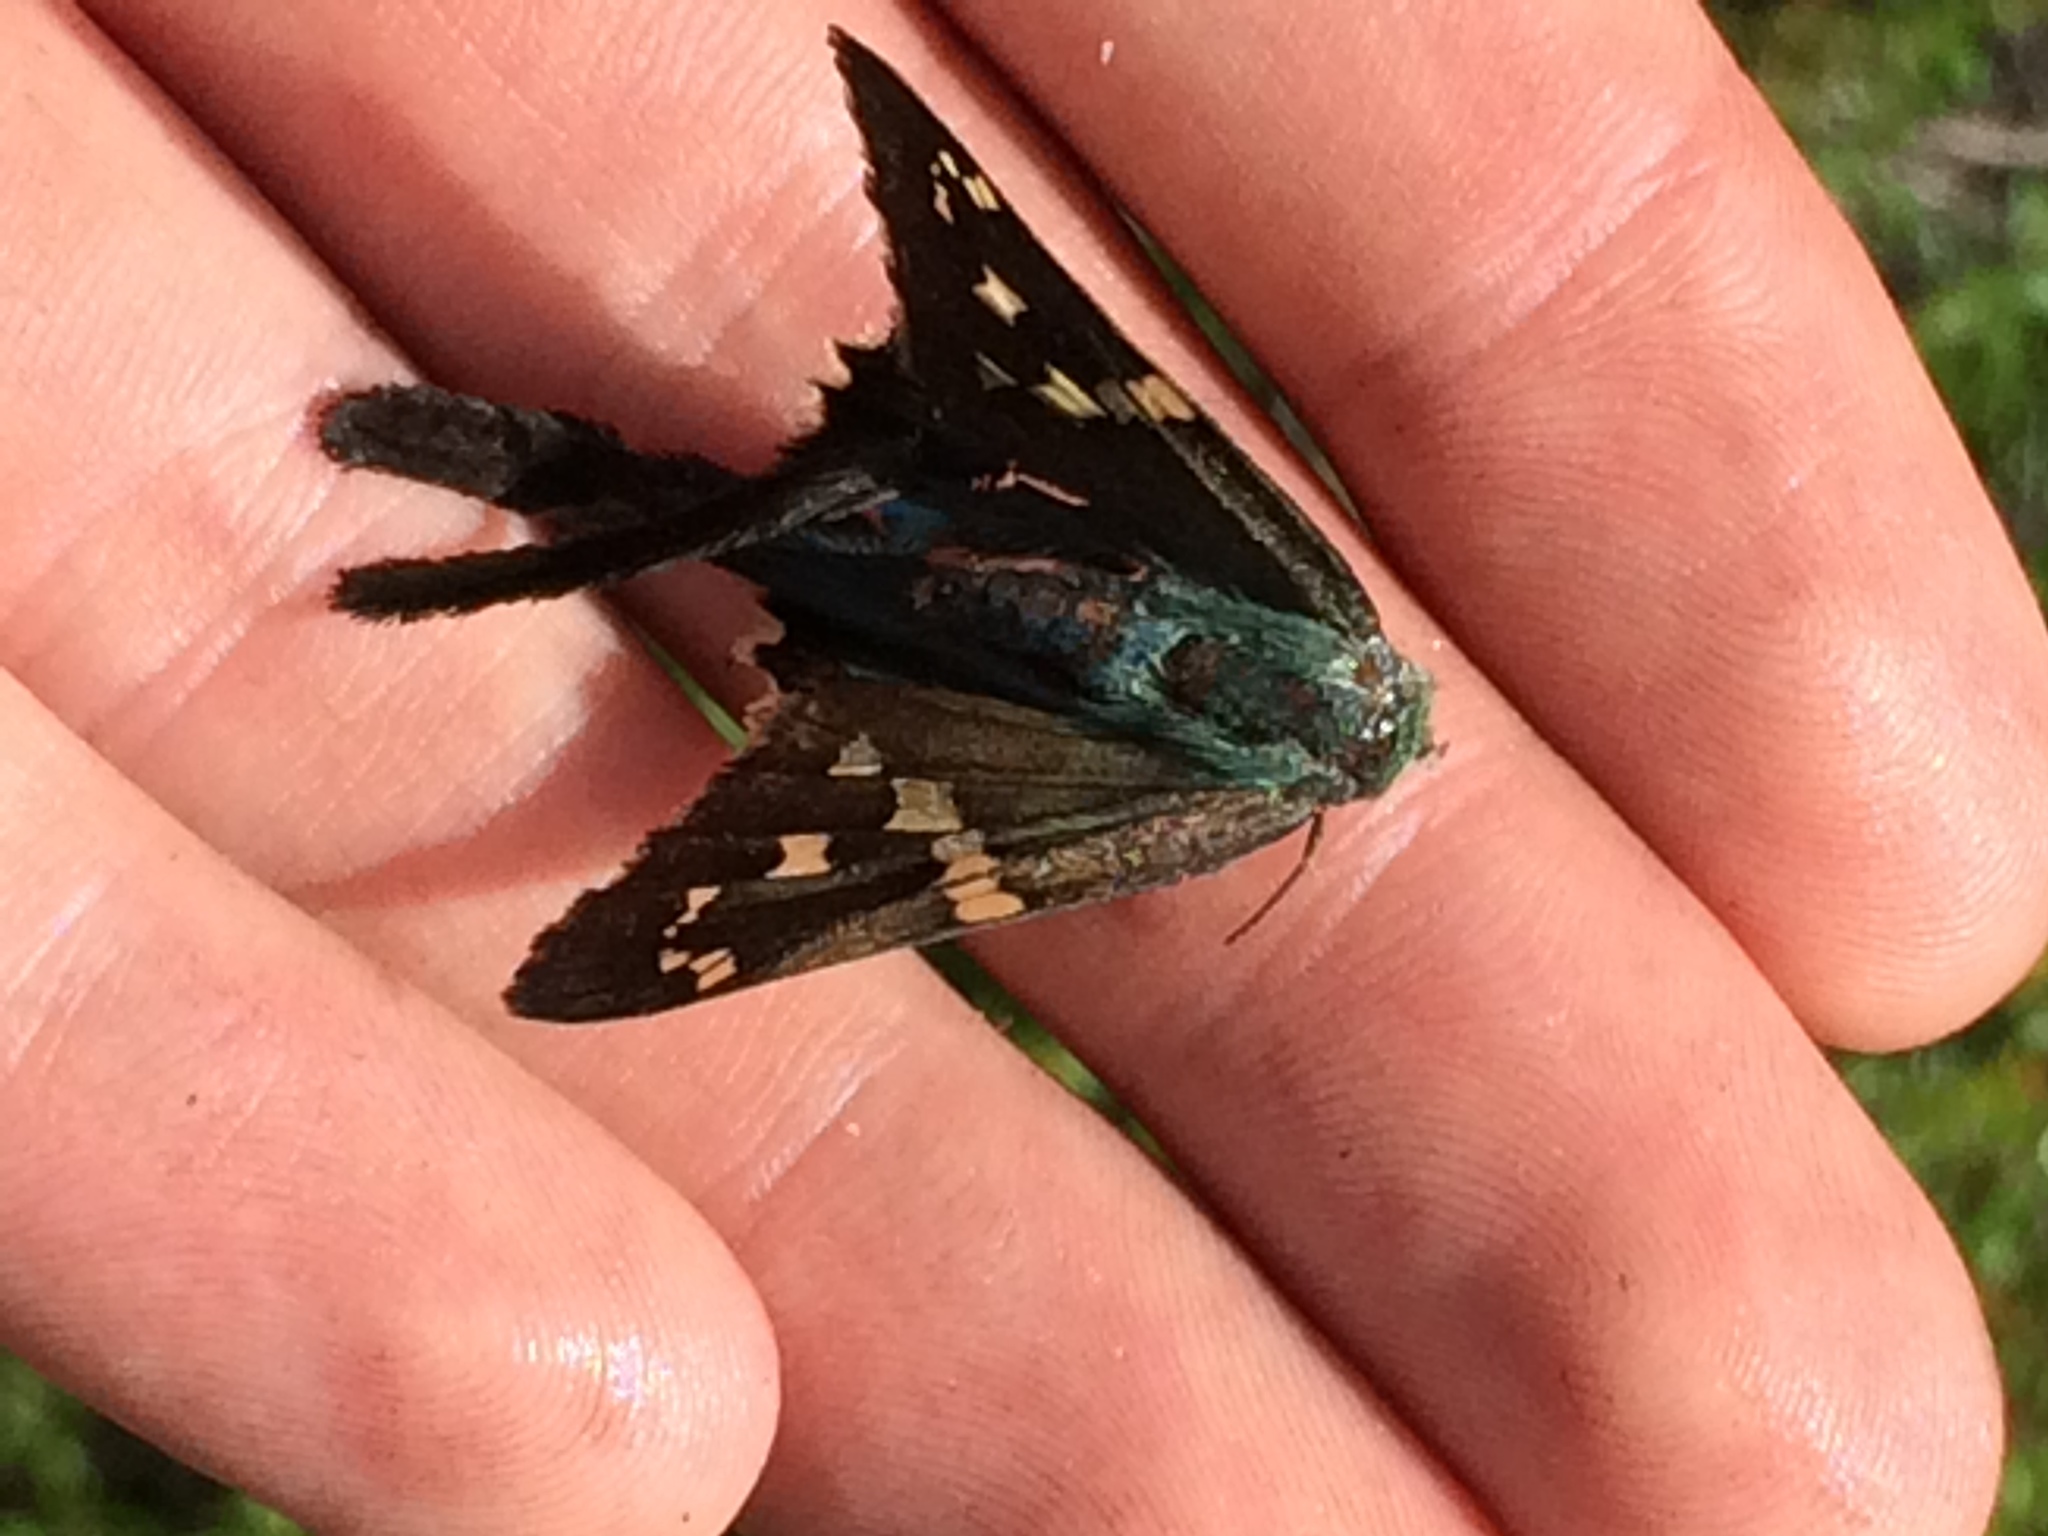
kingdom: Animalia
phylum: Arthropoda
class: Insecta
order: Lepidoptera
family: Hesperiidae
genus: Urbanus
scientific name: Urbanus proteus
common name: Long-tailed skipper
